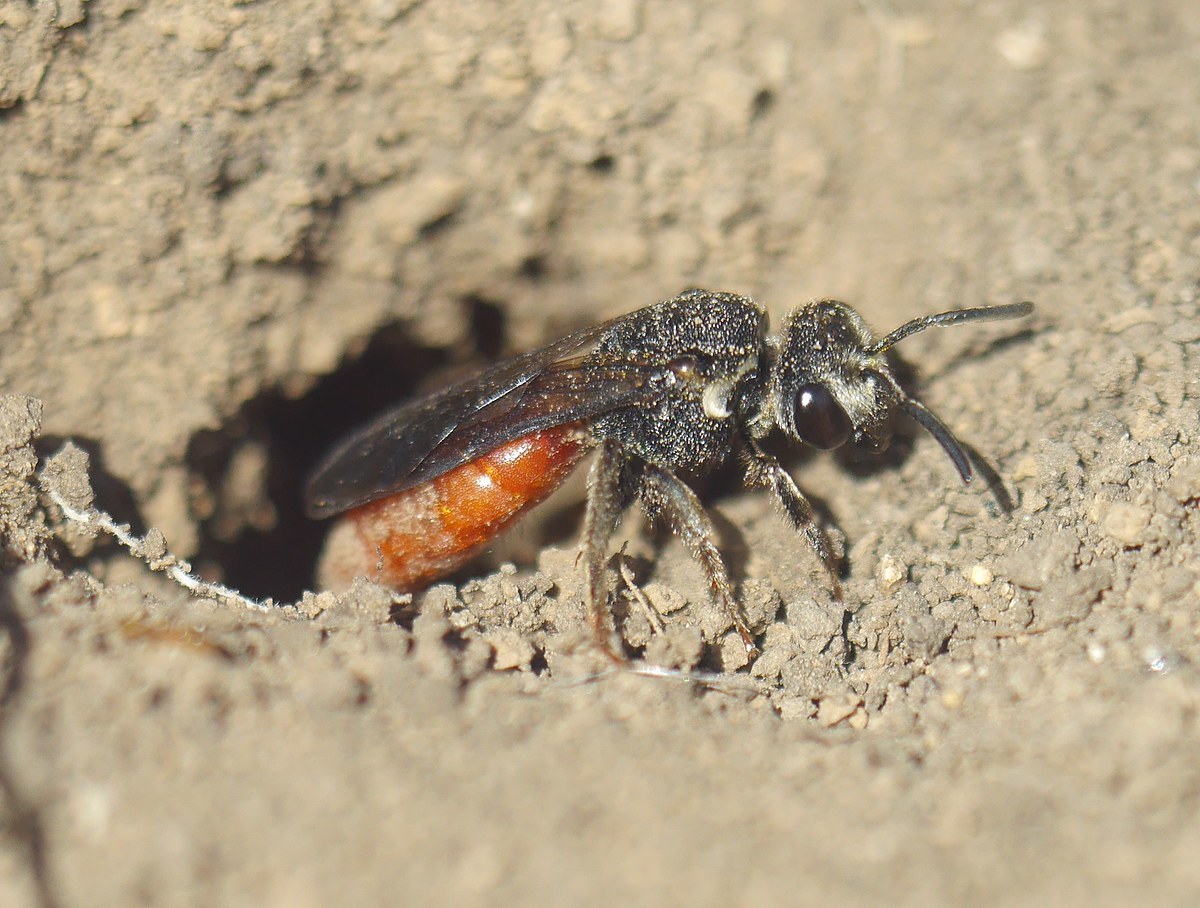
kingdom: Animalia
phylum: Arthropoda
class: Insecta
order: Hymenoptera
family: Halictidae
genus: Sphecodes
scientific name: Sphecodes albilabris
